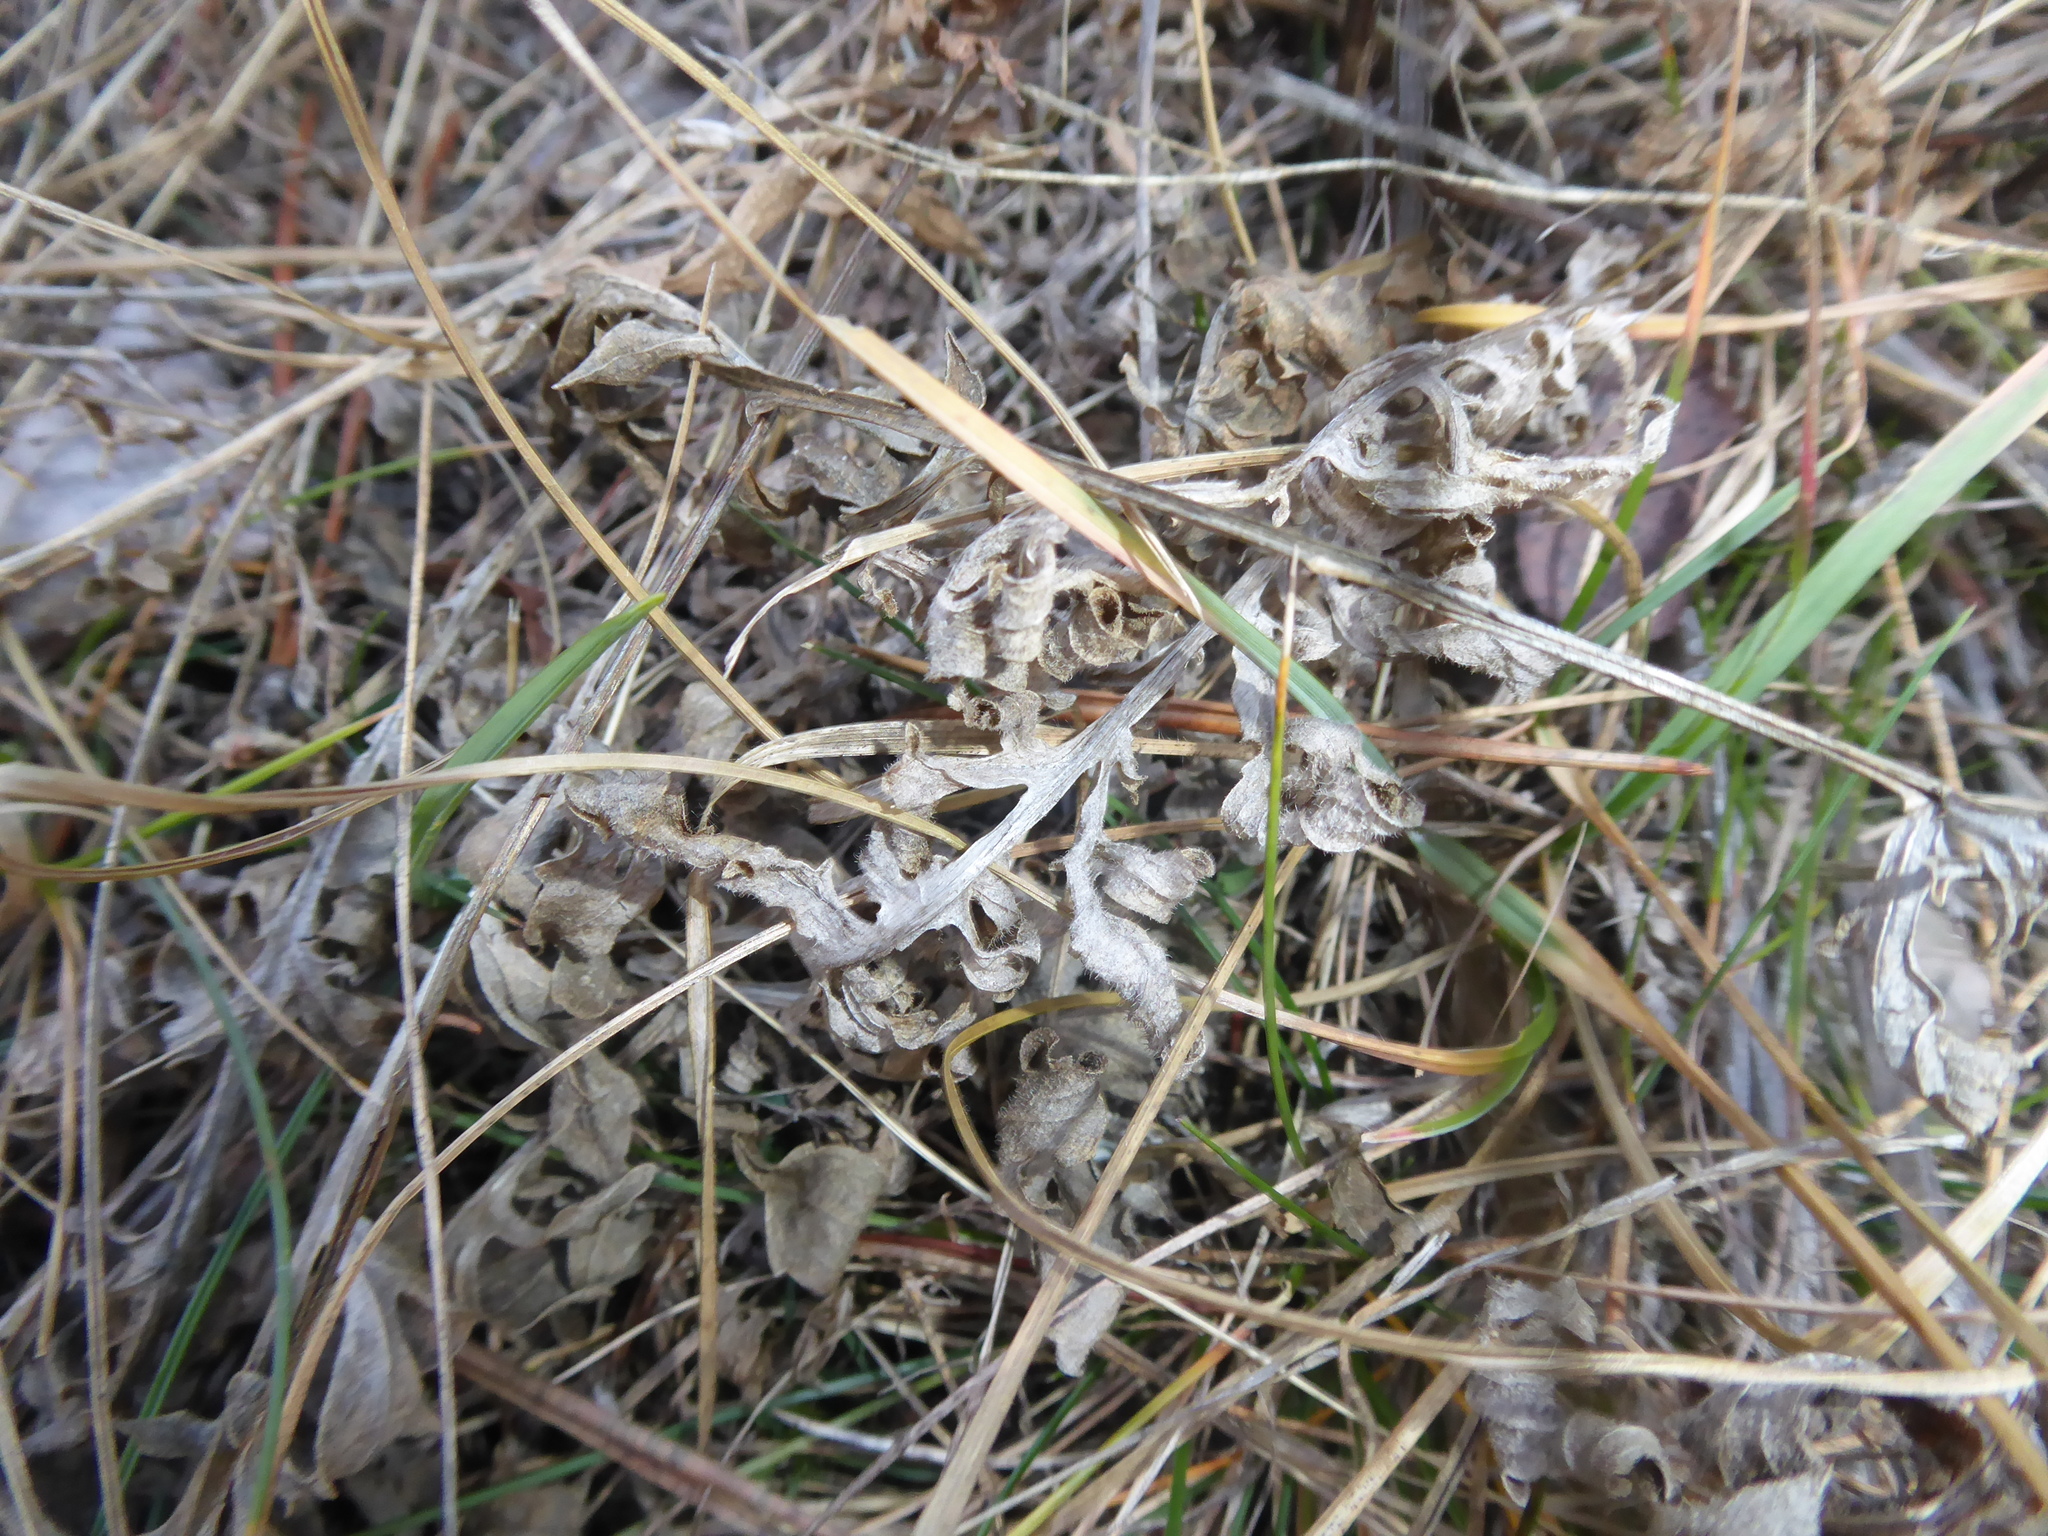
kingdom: Plantae
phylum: Tracheophyta
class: Magnoliopsida
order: Asterales
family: Asteraceae
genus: Centaurea
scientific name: Centaurea scabiosa
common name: Greater knapweed
